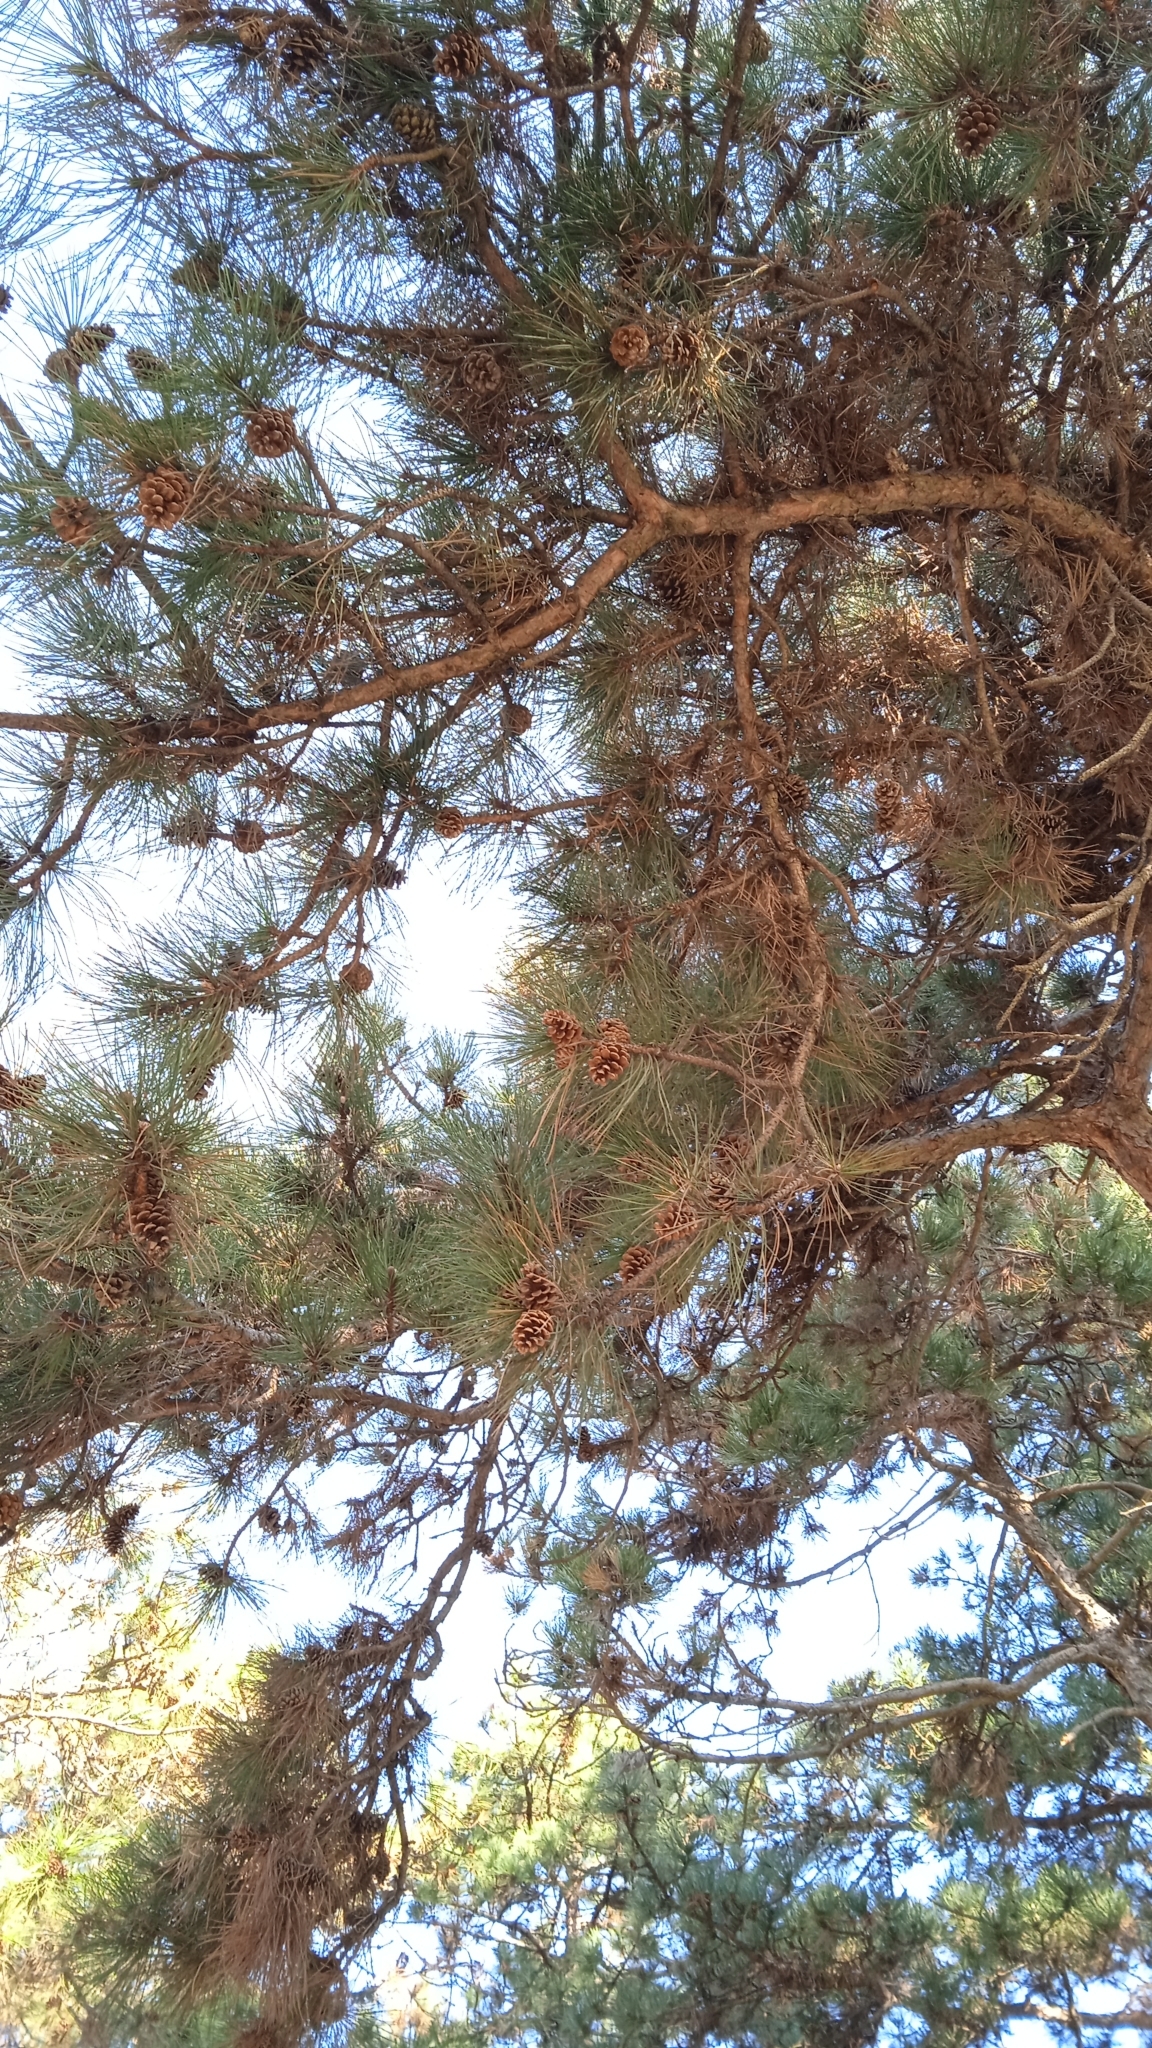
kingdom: Plantae
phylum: Tracheophyta
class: Pinopsida
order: Pinales
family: Pinaceae
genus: Pinus
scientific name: Pinus nigra
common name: Austrian pine
